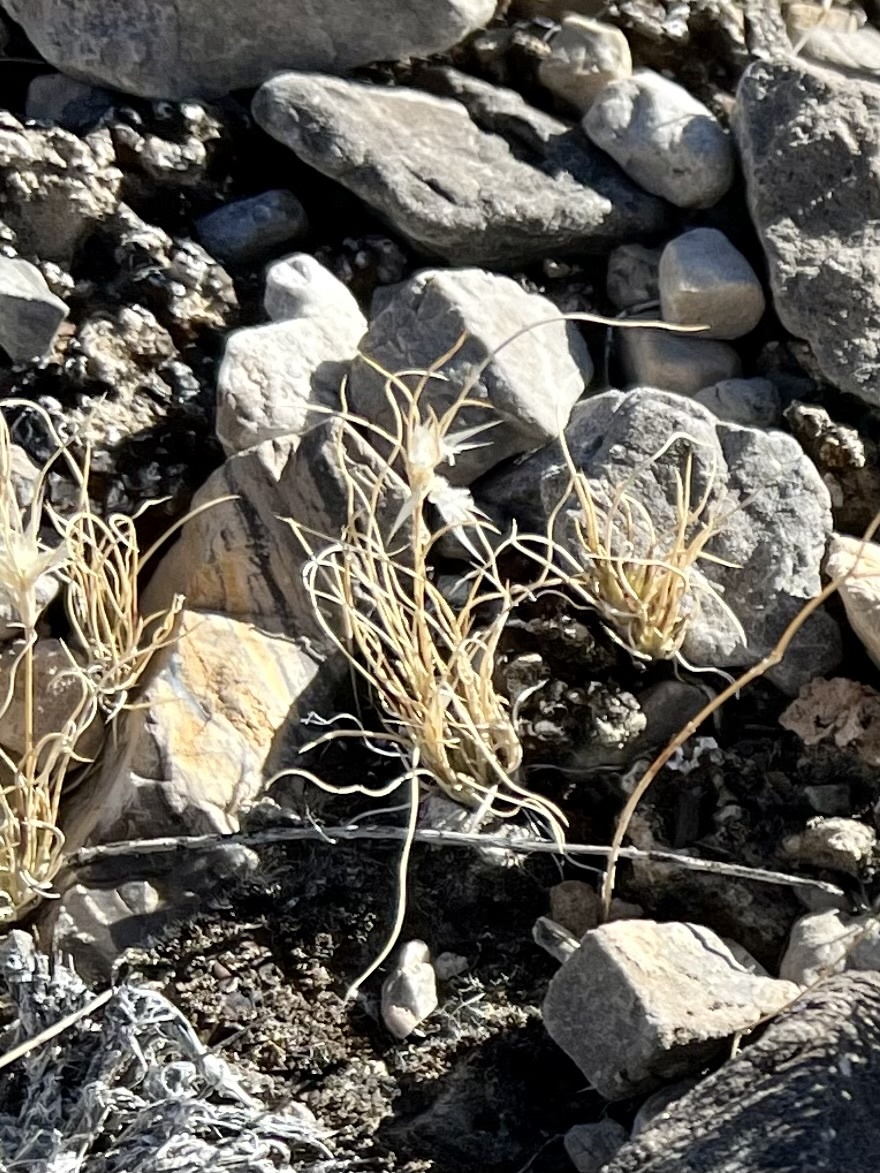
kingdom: Plantae
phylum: Tracheophyta
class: Liliopsida
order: Poales
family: Poaceae
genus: Dasyochloa
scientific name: Dasyochloa pulchella
